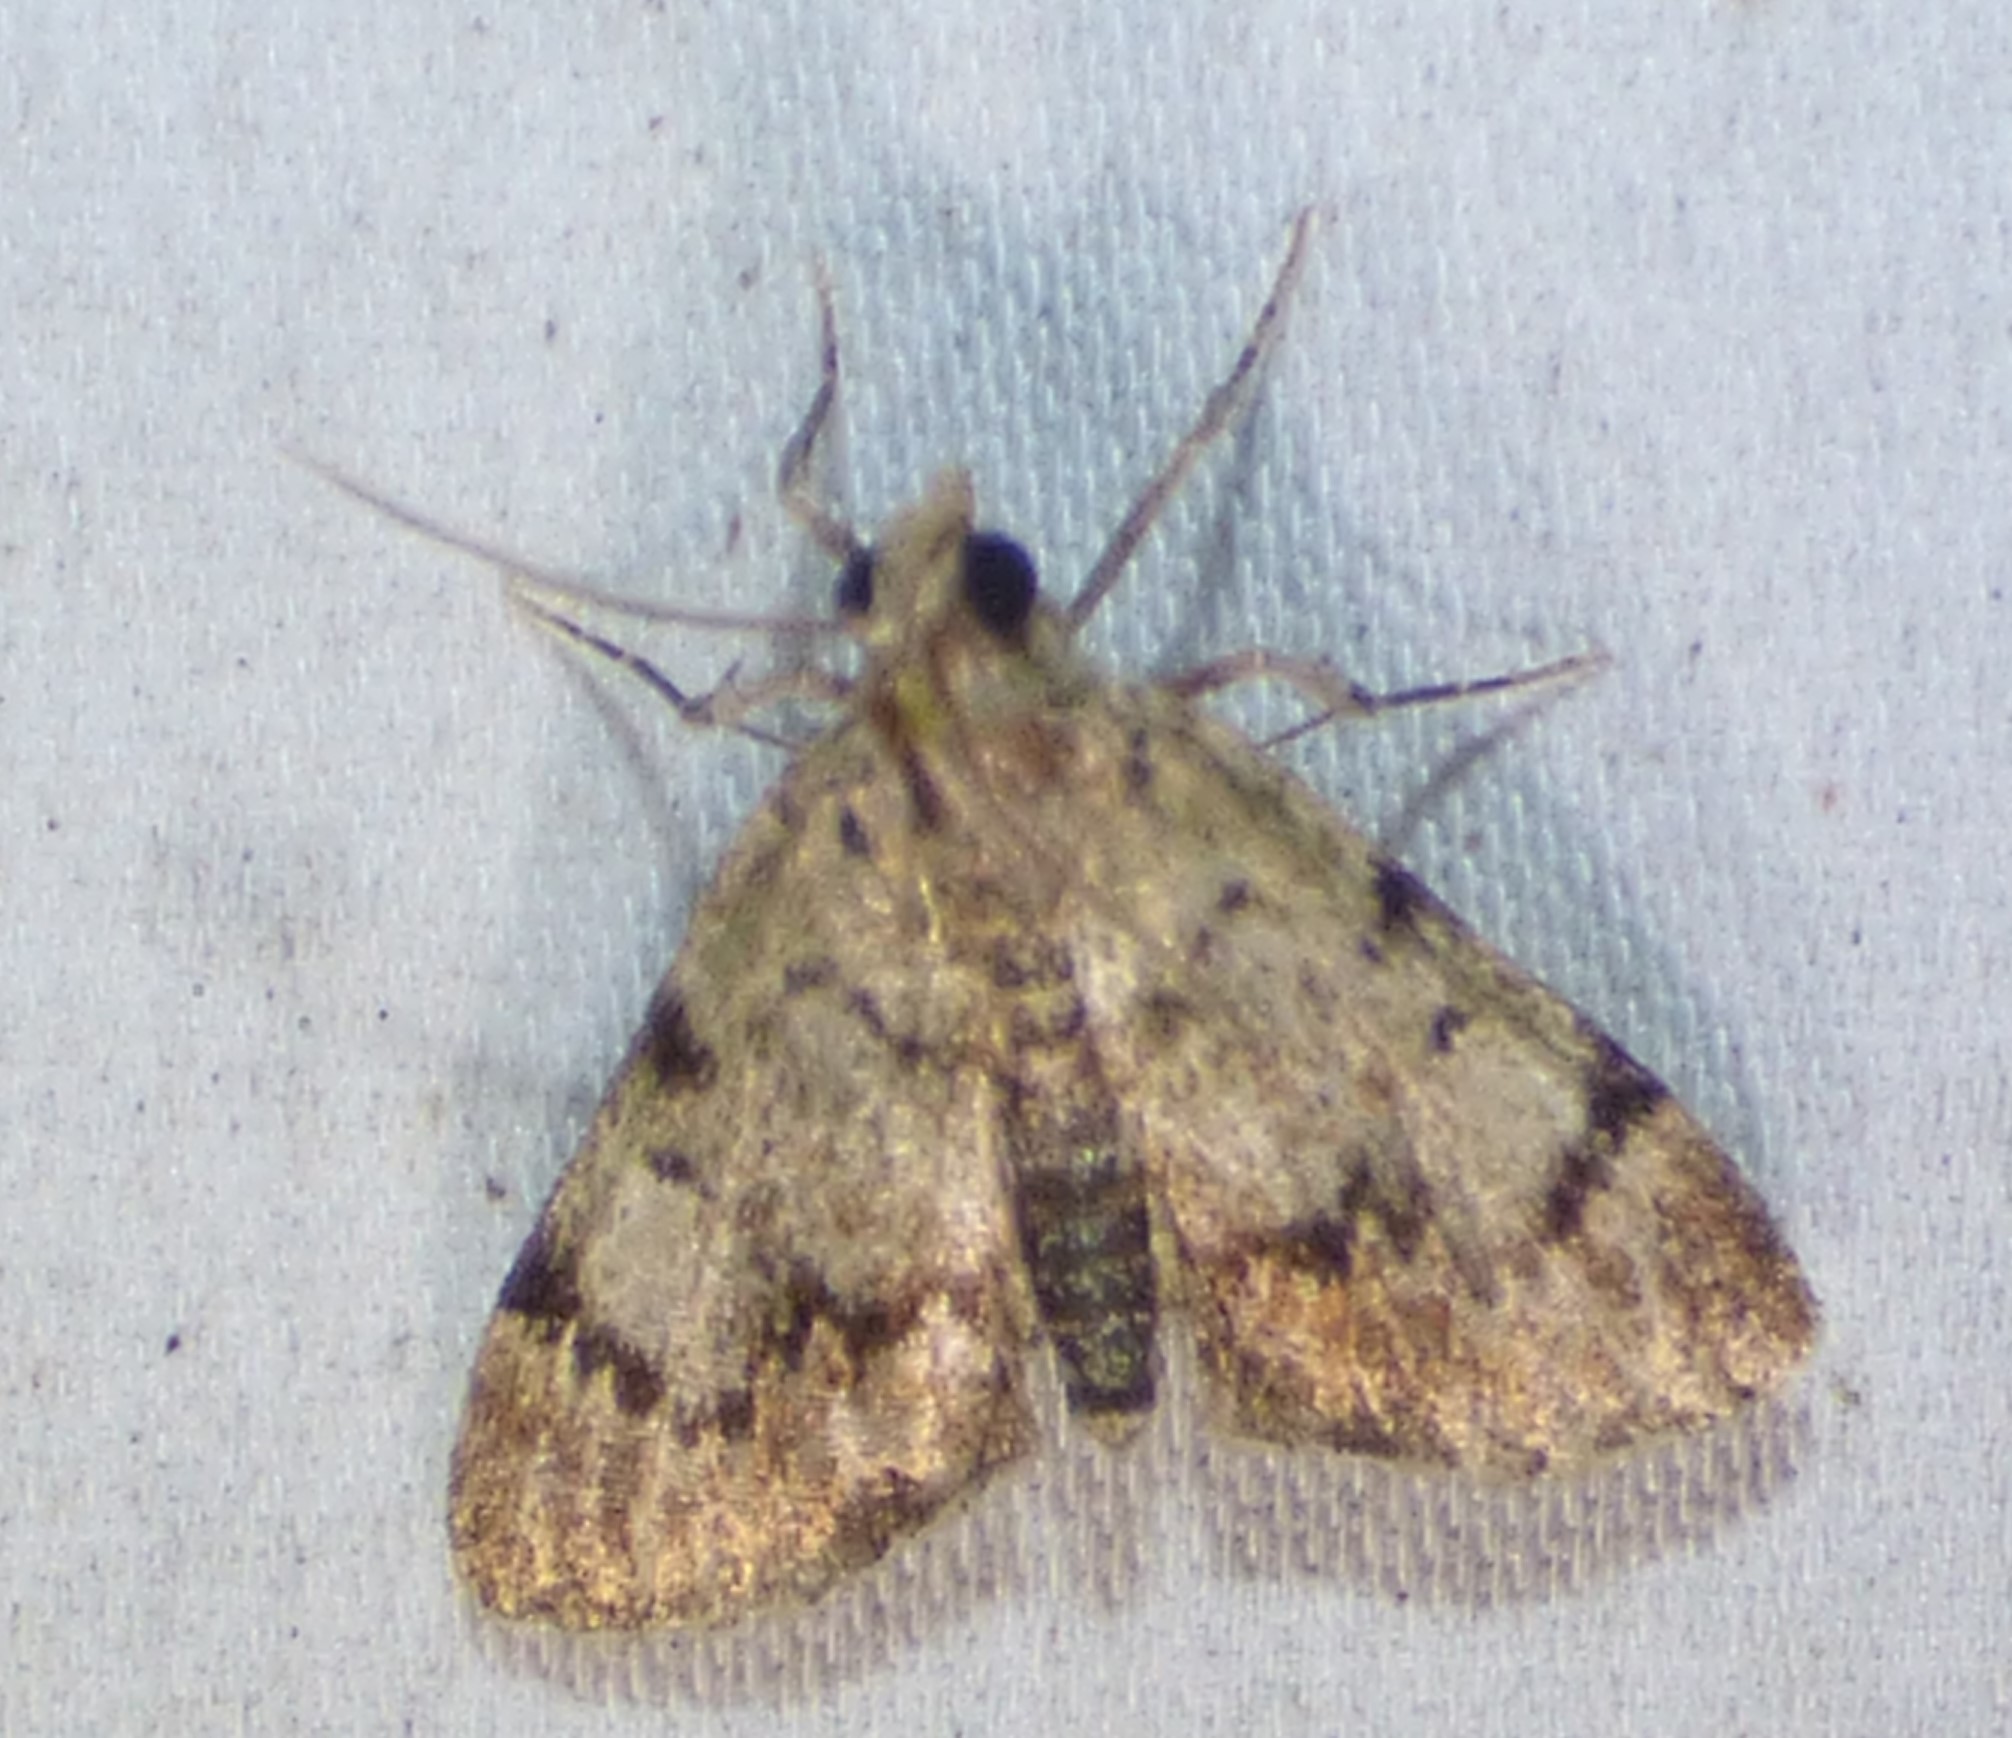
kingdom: Animalia
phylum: Arthropoda
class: Insecta
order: Lepidoptera
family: Pyralidae
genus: Epipaschia
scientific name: Epipaschia superatalis
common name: Dimorphic macalla moth
